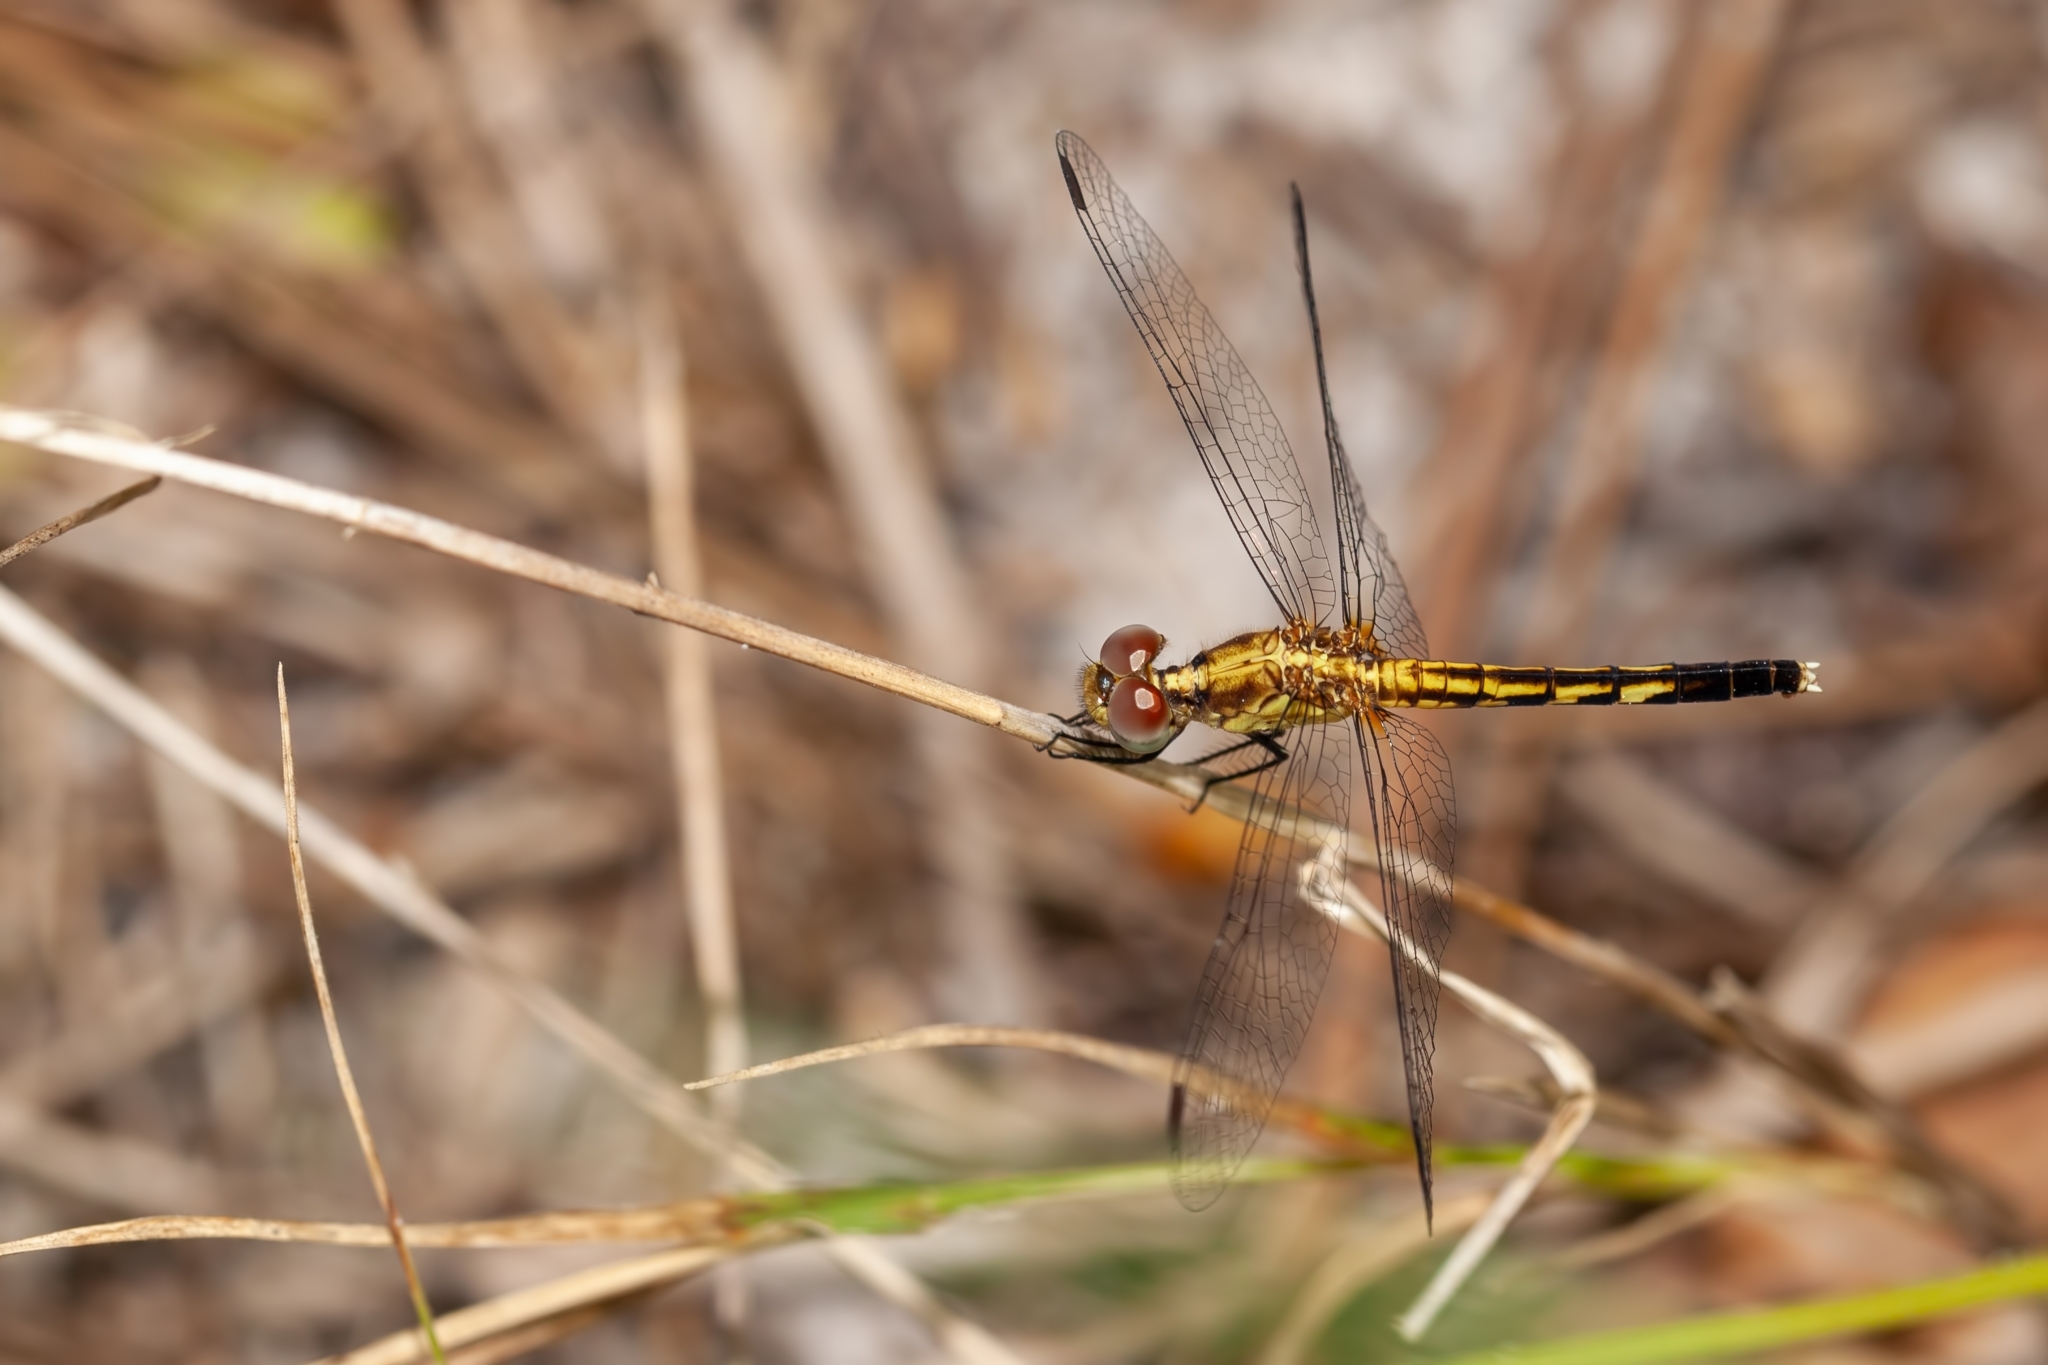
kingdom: Animalia
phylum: Arthropoda
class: Insecta
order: Odonata
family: Libellulidae
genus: Erythrodiplax
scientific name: Erythrodiplax minuscula
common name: Little blue dragonlet
